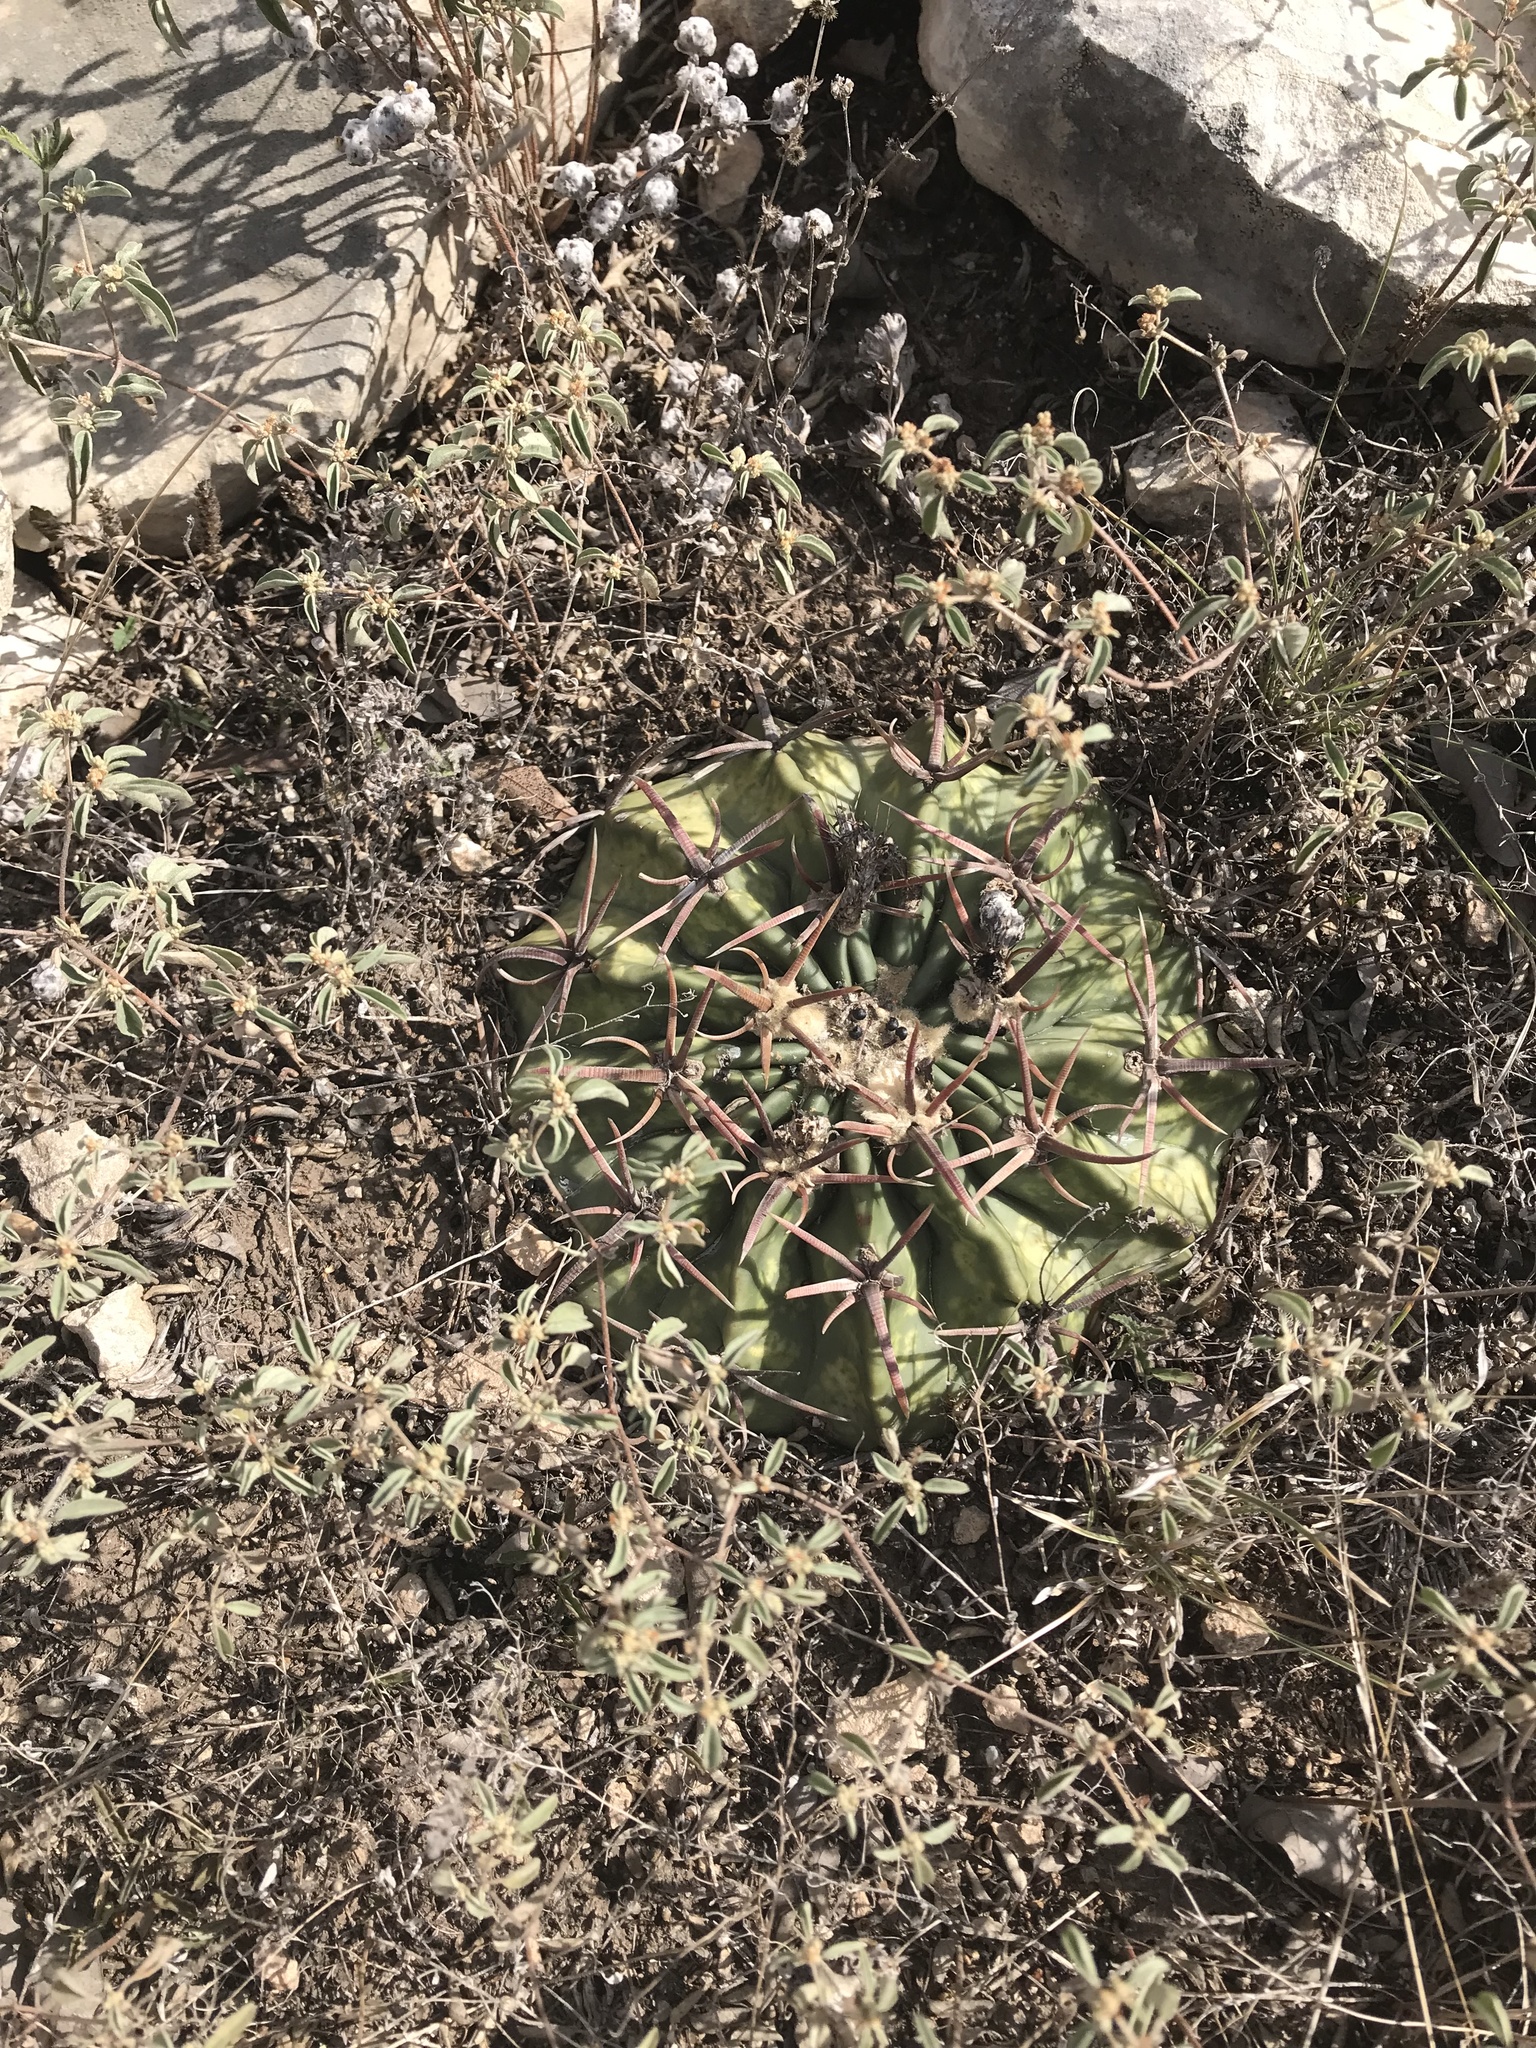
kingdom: Plantae
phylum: Tracheophyta
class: Magnoliopsida
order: Caryophyllales
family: Cactaceae
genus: Echinocactus
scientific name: Echinocactus texensis
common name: Devil's pincushion
